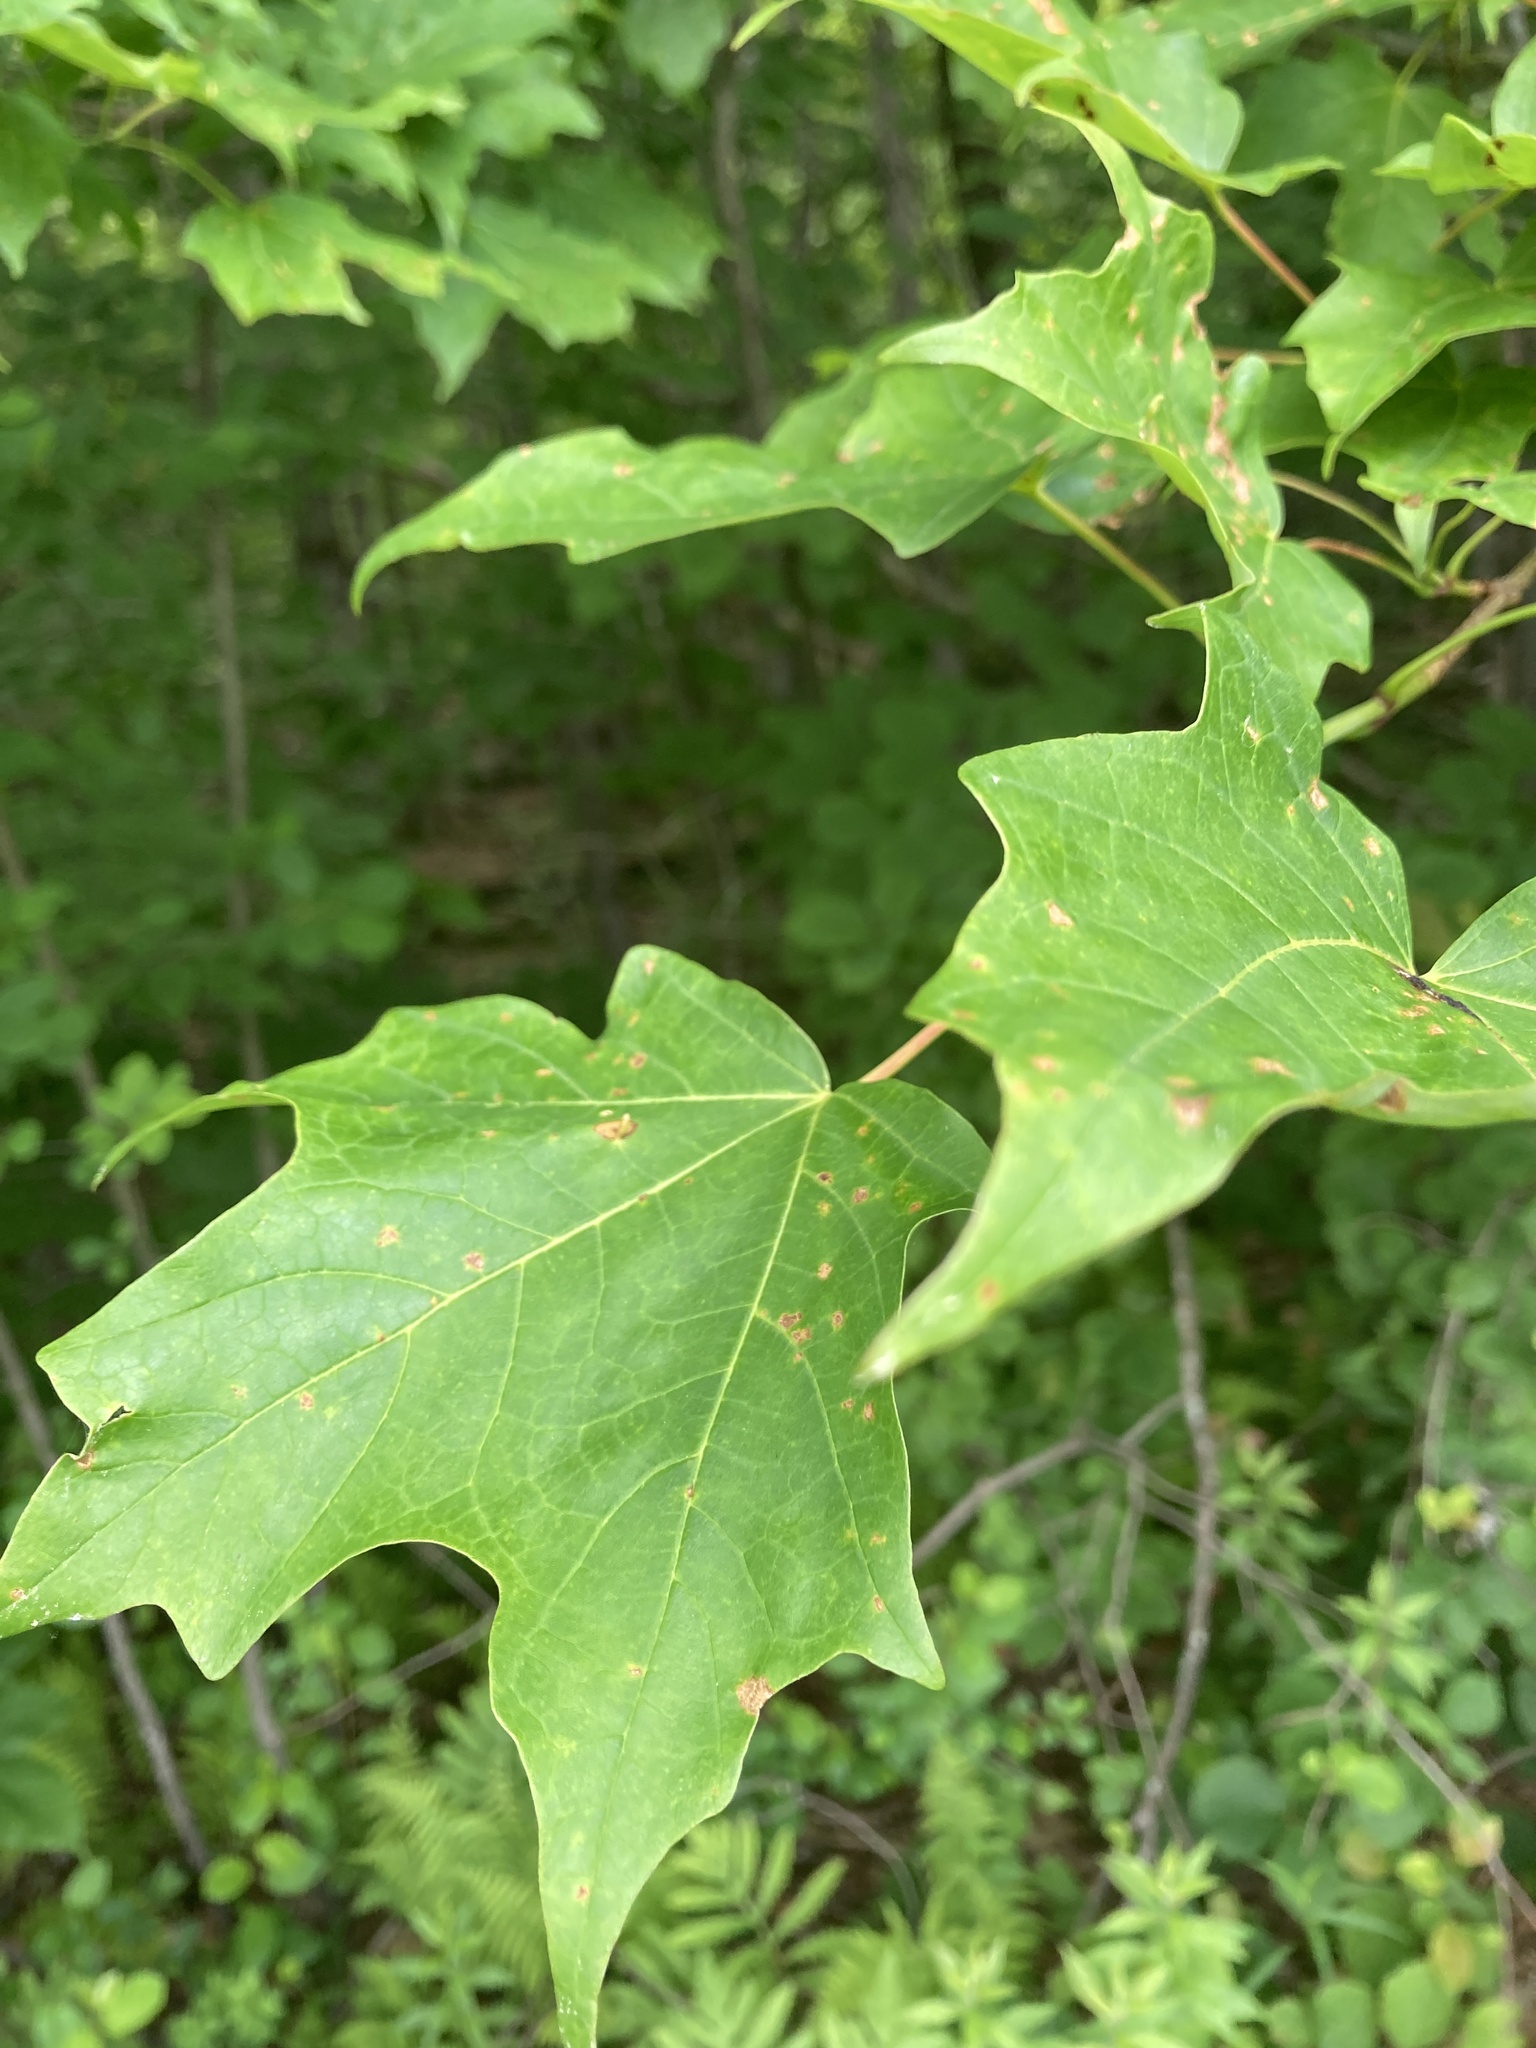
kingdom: Plantae
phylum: Tracheophyta
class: Magnoliopsida
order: Sapindales
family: Sapindaceae
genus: Acer
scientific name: Acer saccharum
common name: Sugar maple
